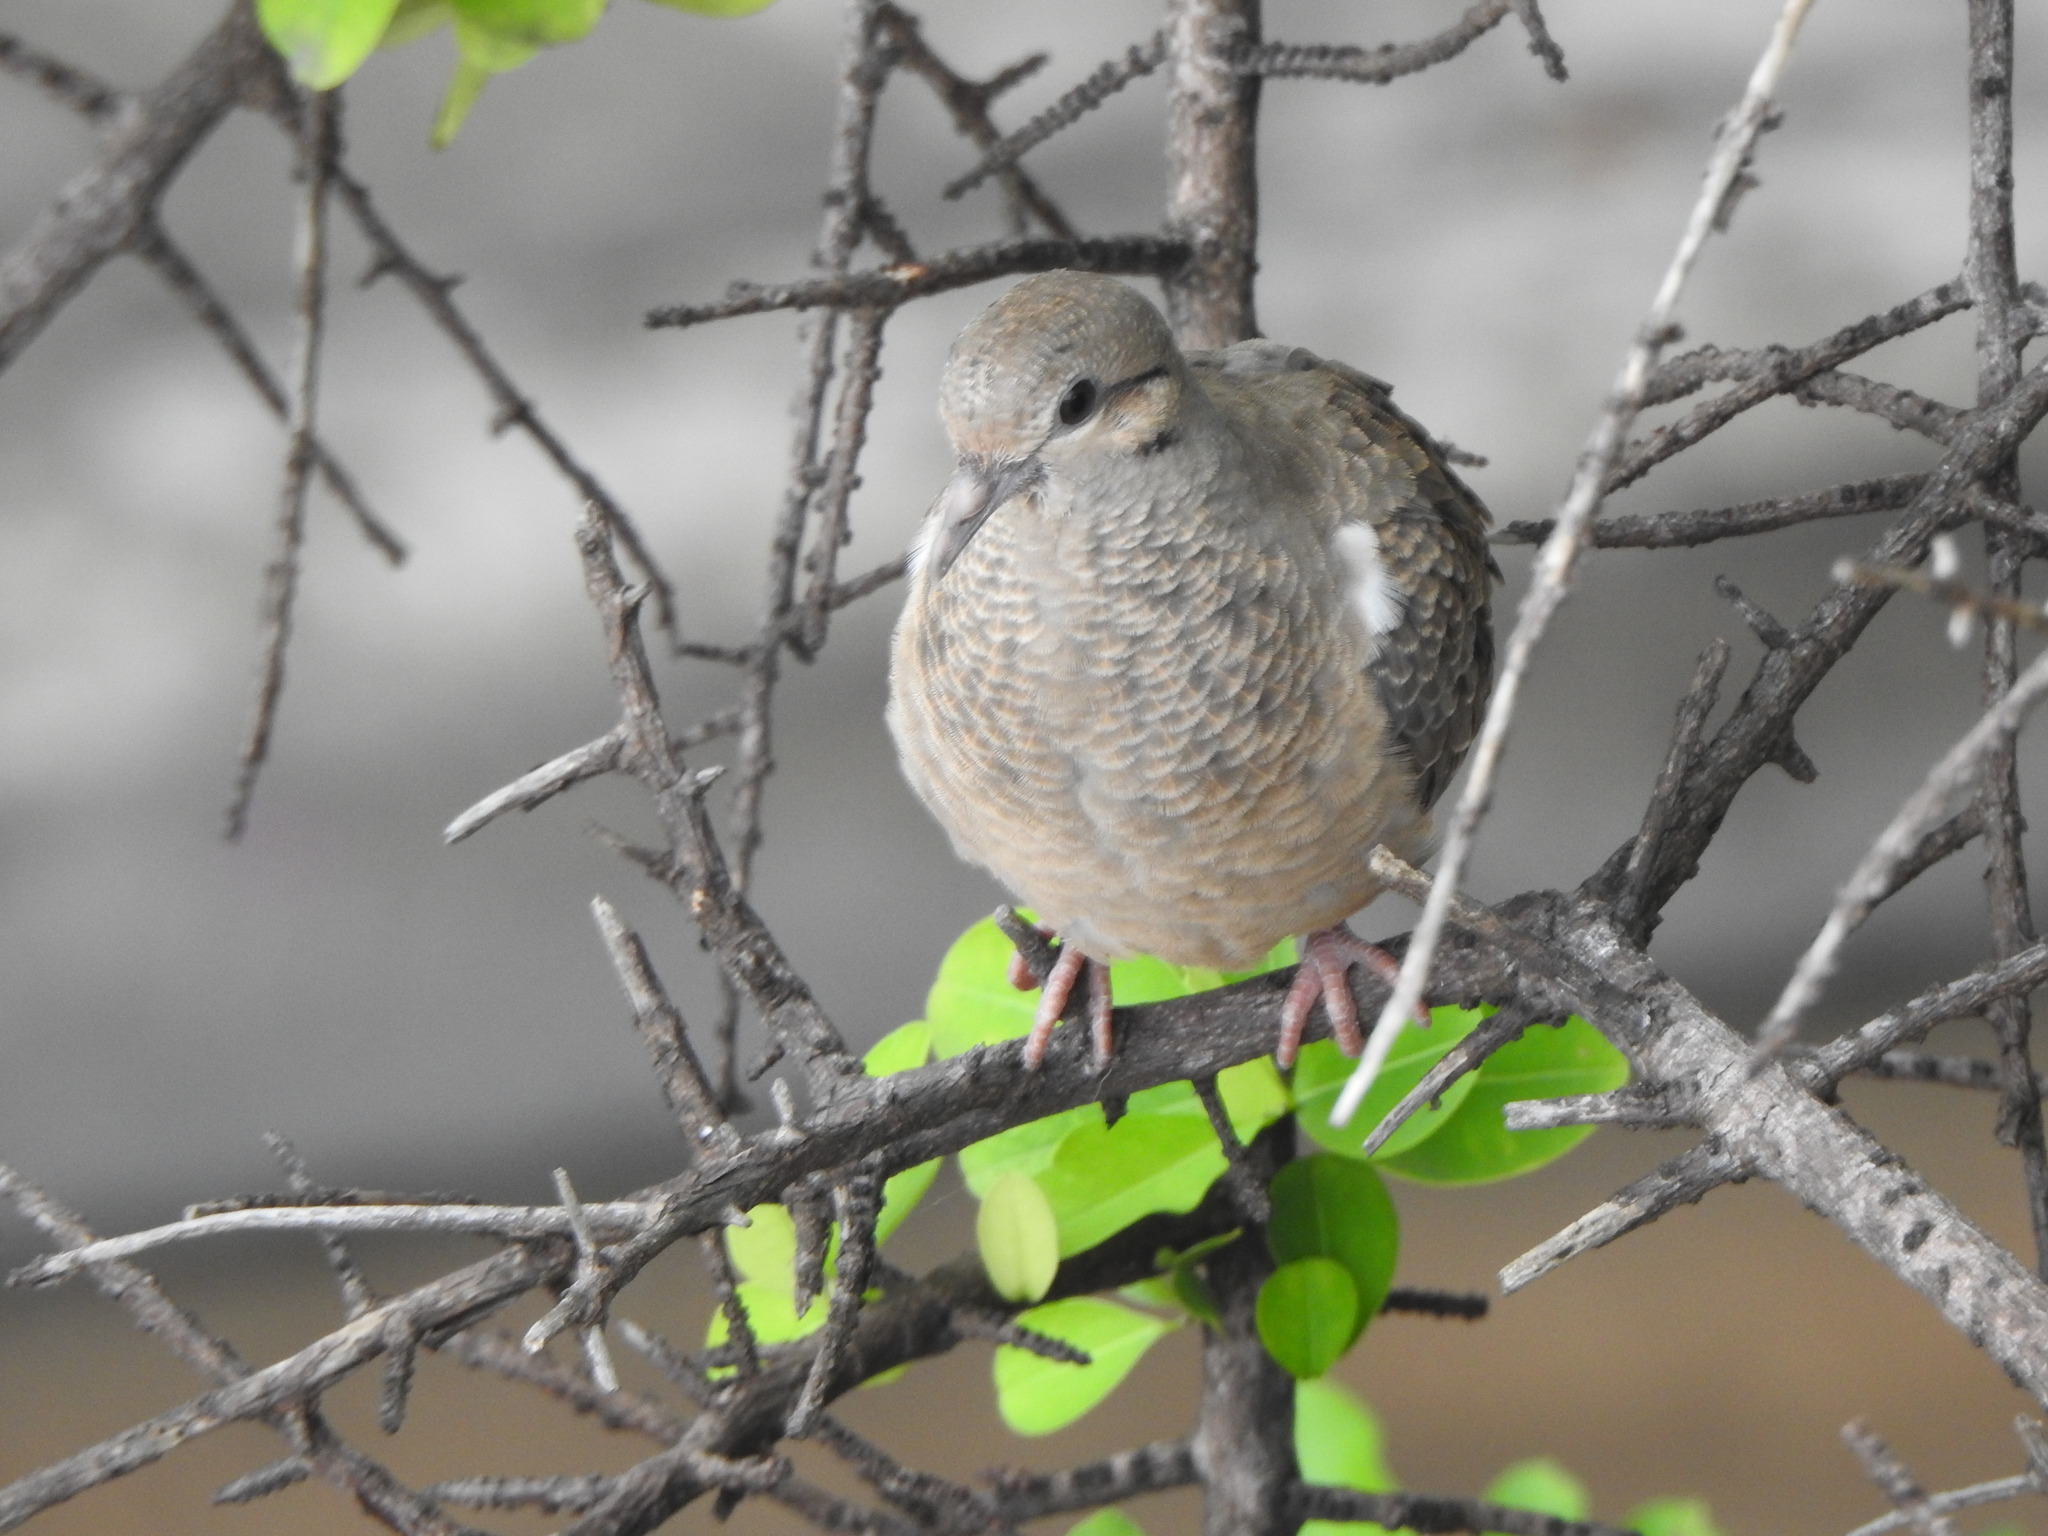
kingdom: Animalia
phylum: Chordata
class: Aves
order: Columbiformes
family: Columbidae
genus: Zenaida
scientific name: Zenaida auriculata
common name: Eared dove
